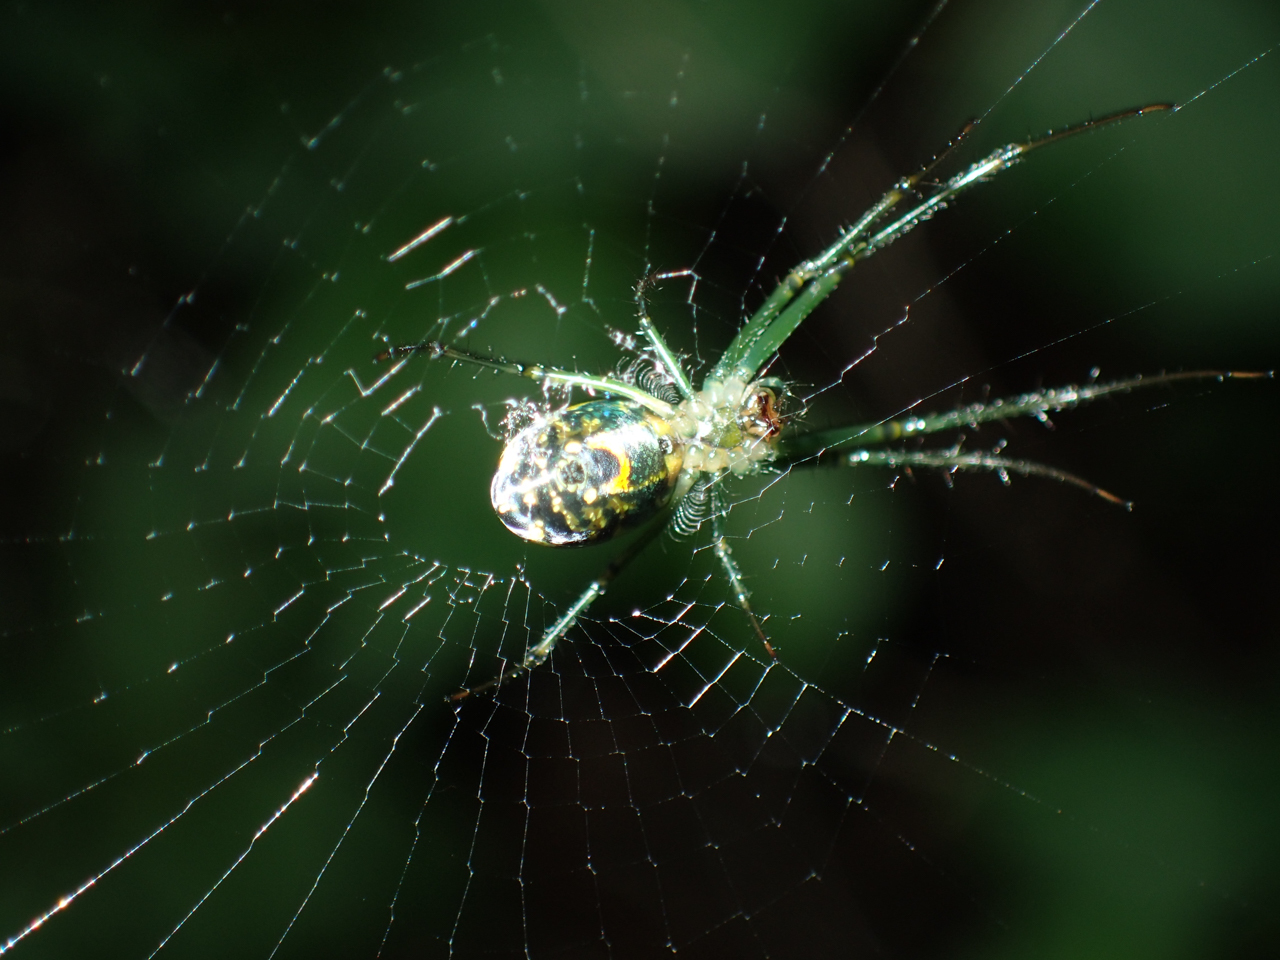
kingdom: Animalia
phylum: Arthropoda
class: Arachnida
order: Araneae
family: Tetragnathidae
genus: Leucauge
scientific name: Leucauge venusta
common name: Longjawed orb weavers
